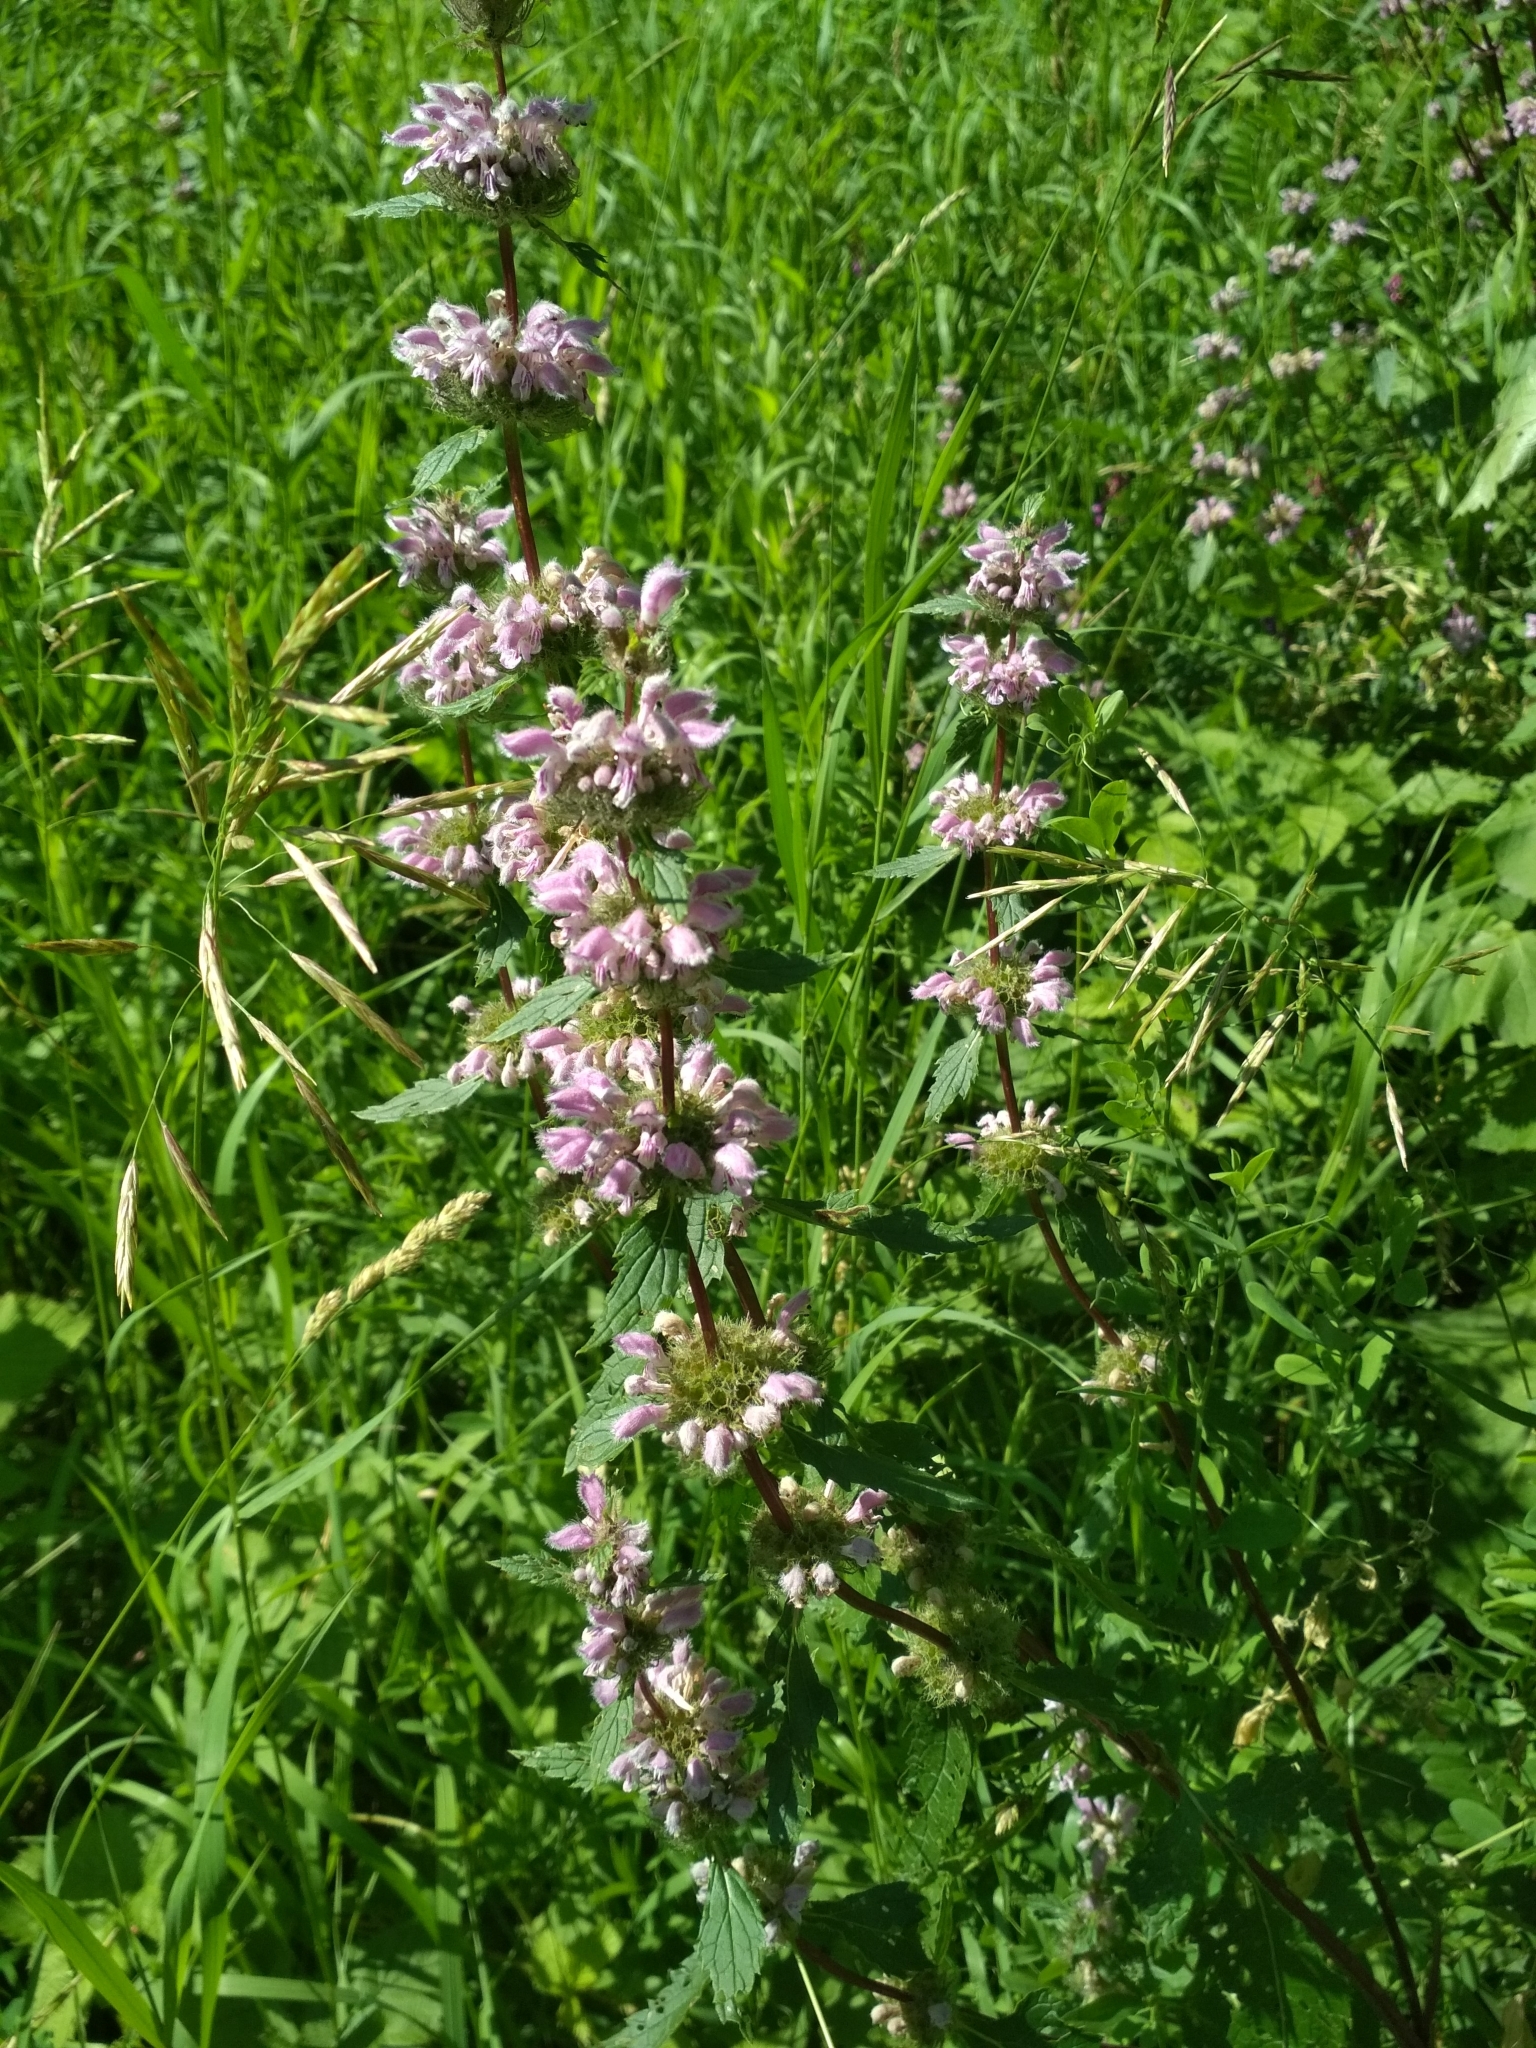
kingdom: Plantae
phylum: Tracheophyta
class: Magnoliopsida
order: Lamiales
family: Lamiaceae
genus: Phlomoides
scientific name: Phlomoides tuberosa
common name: Tuberous jerusalem sage
